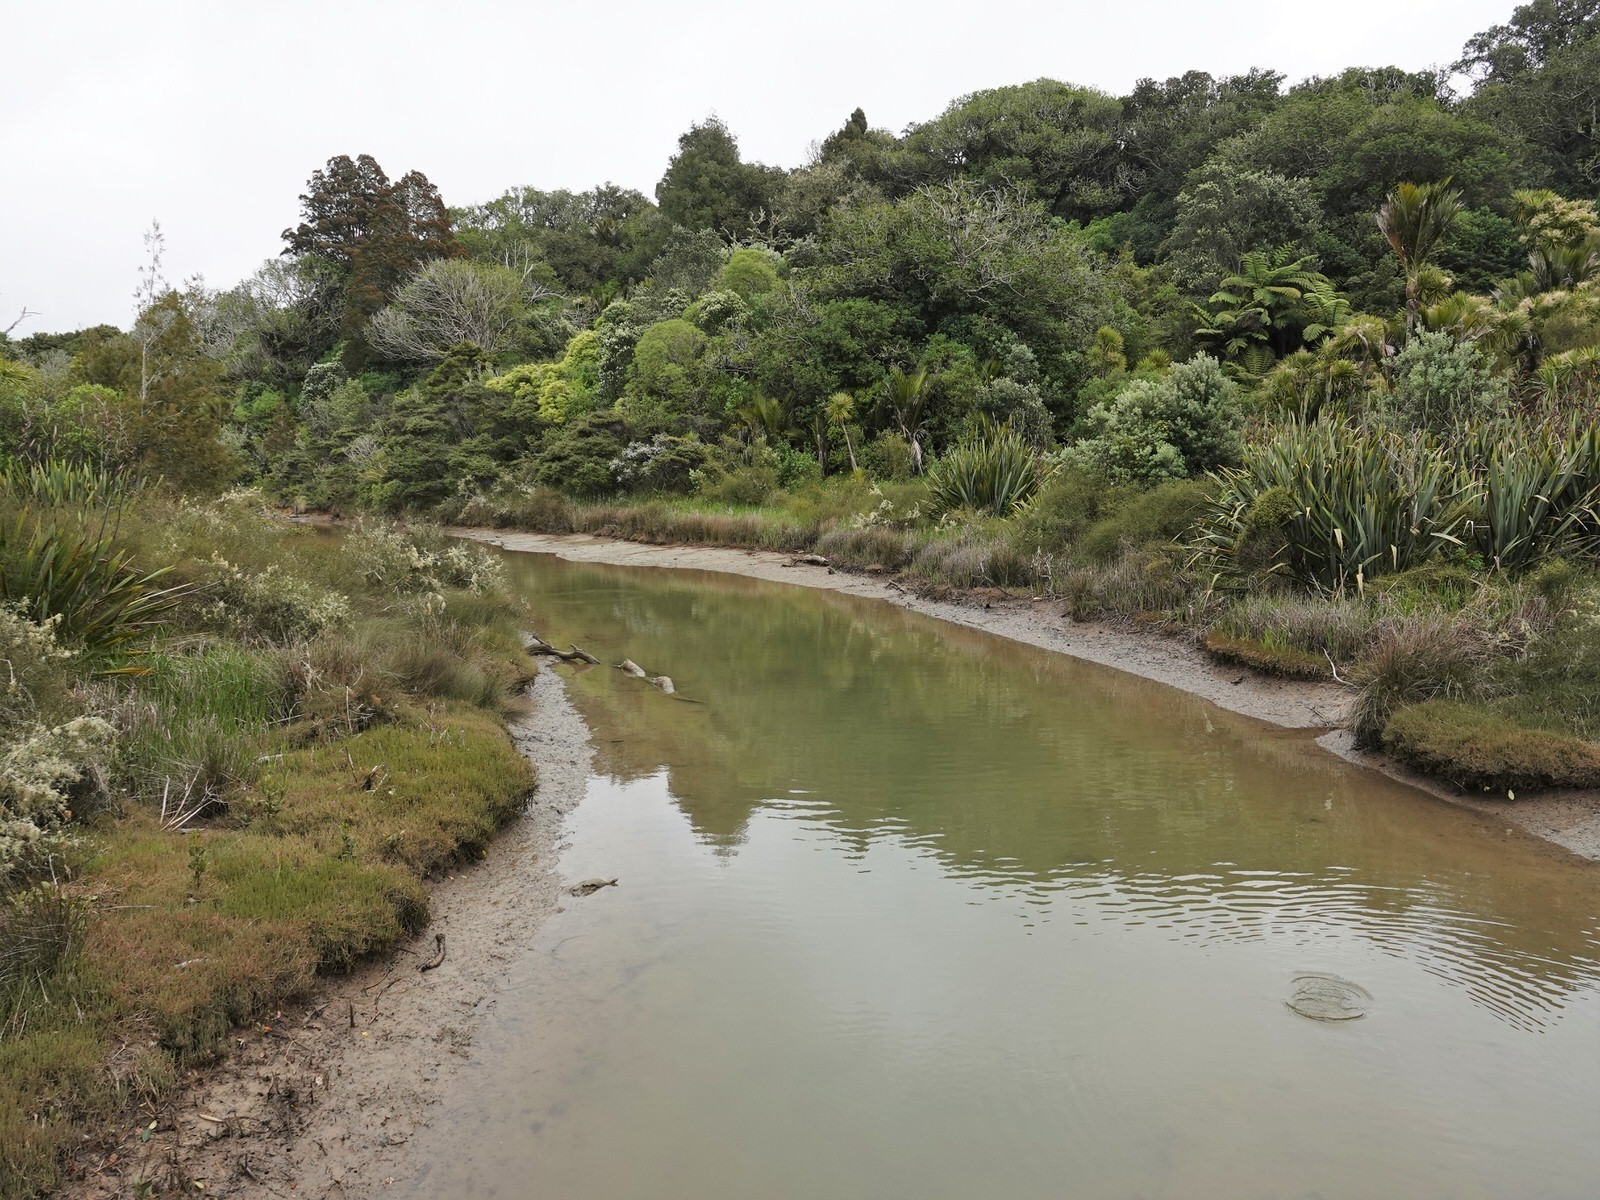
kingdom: Animalia
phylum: Chordata
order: Anguilliformes
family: Anguillidae
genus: Anguilla
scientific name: Anguilla australis
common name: Shortfin eel
